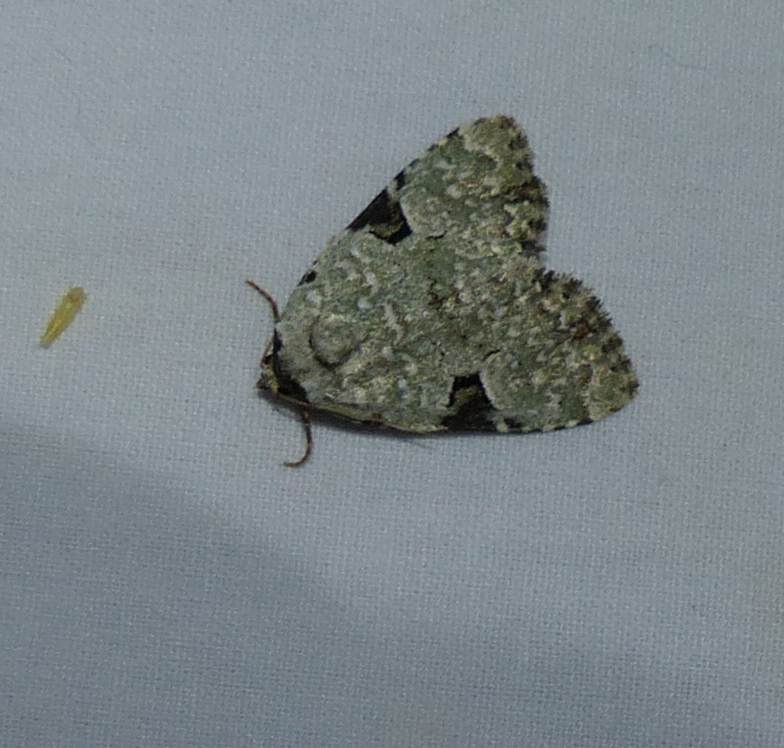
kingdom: Animalia
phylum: Arthropoda
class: Insecta
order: Lepidoptera
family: Noctuidae
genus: Leuconycta
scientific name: Leuconycta diphteroides
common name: Green leuconycta moth
